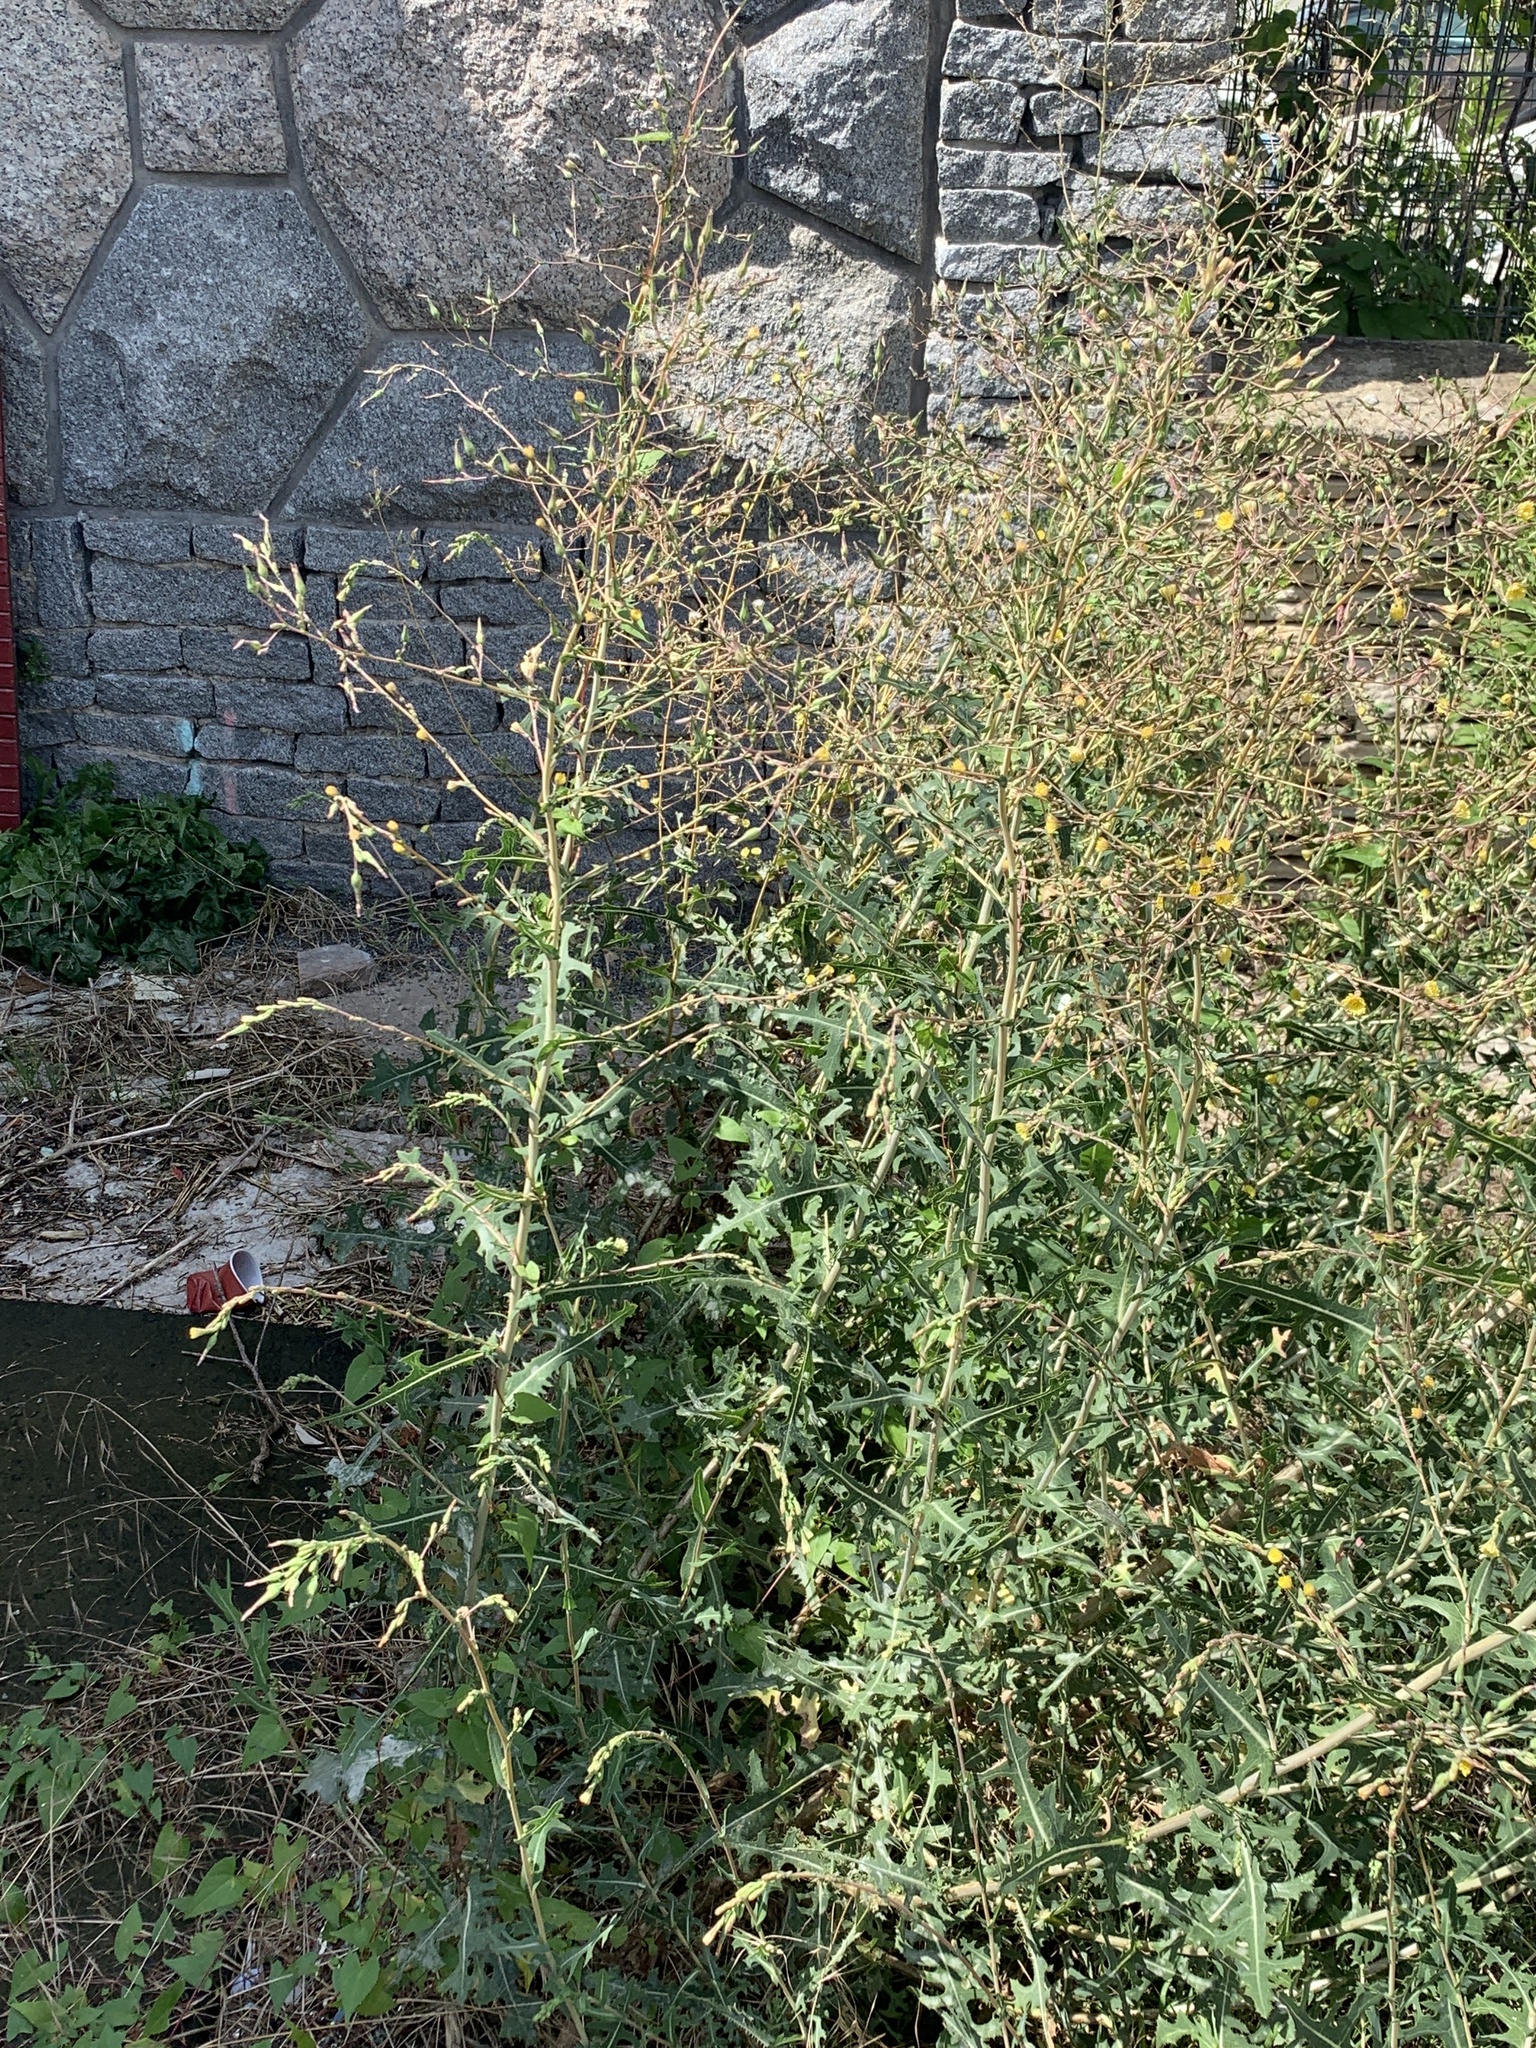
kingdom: Plantae
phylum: Tracheophyta
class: Magnoliopsida
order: Asterales
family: Asteraceae
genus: Lactuca
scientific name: Lactuca serriola
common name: Prickly lettuce
